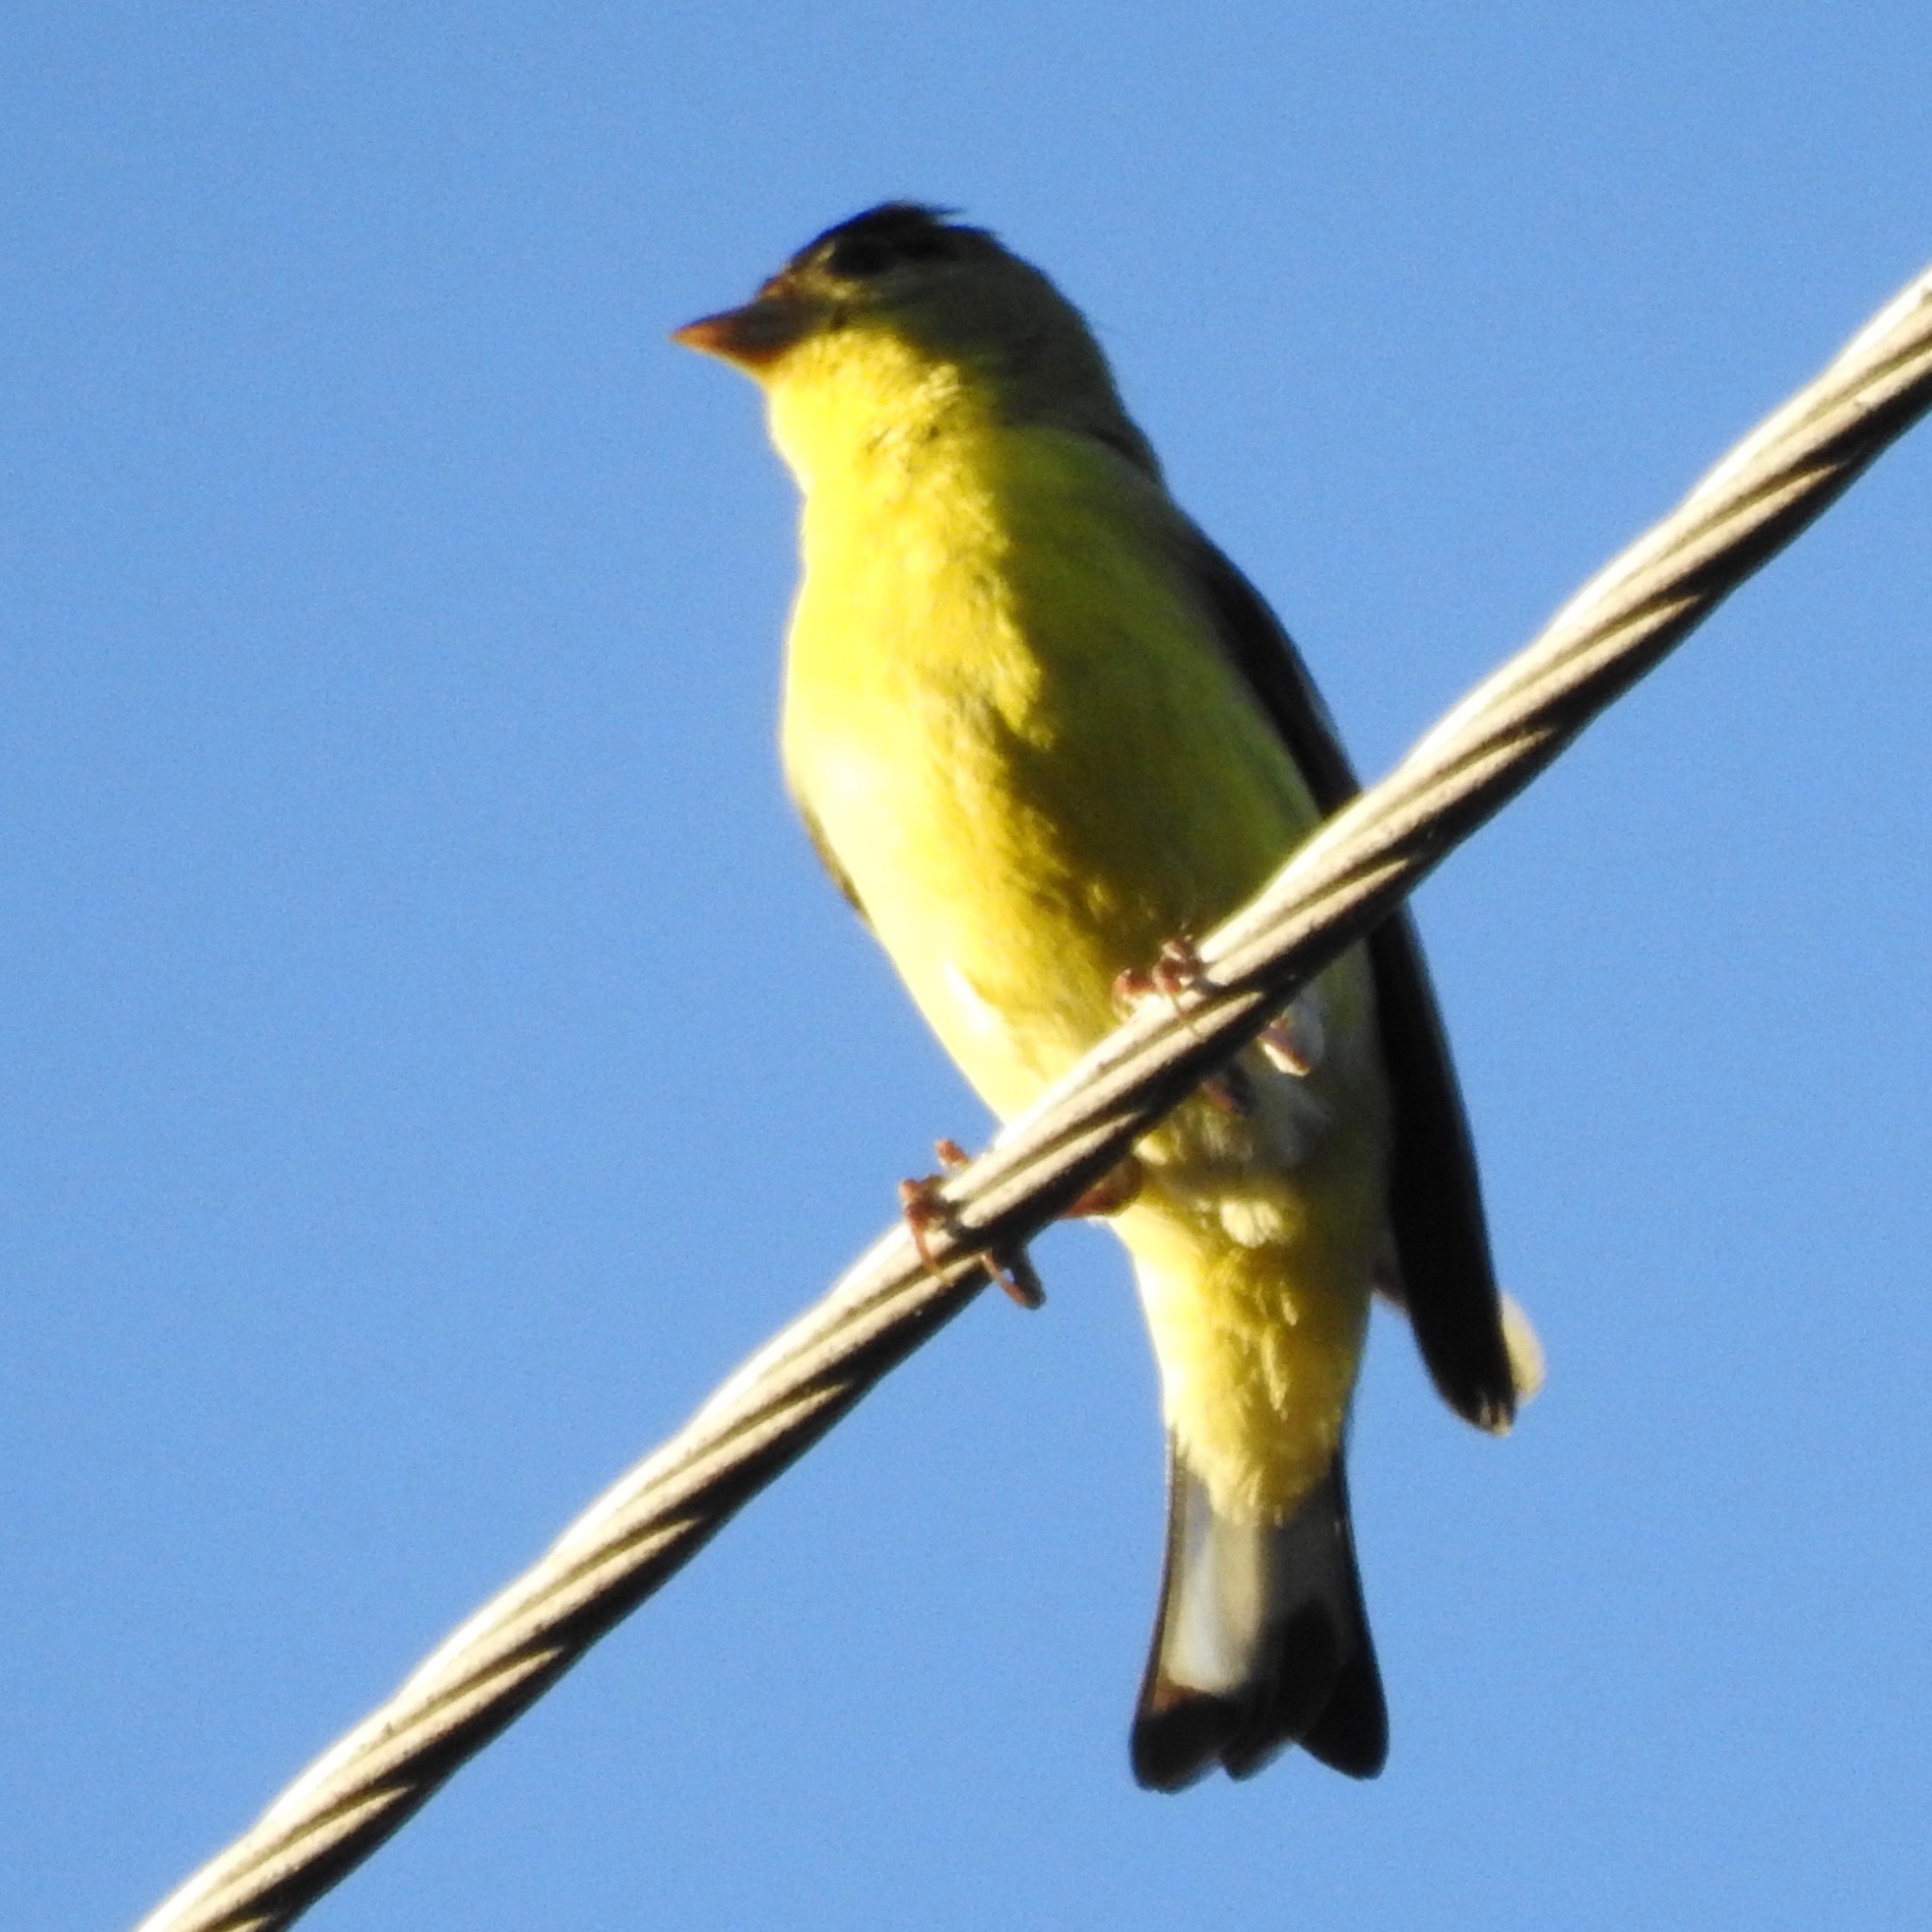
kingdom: Animalia
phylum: Chordata
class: Aves
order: Passeriformes
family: Fringillidae
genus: Spinus
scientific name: Spinus psaltria
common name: Lesser goldfinch
